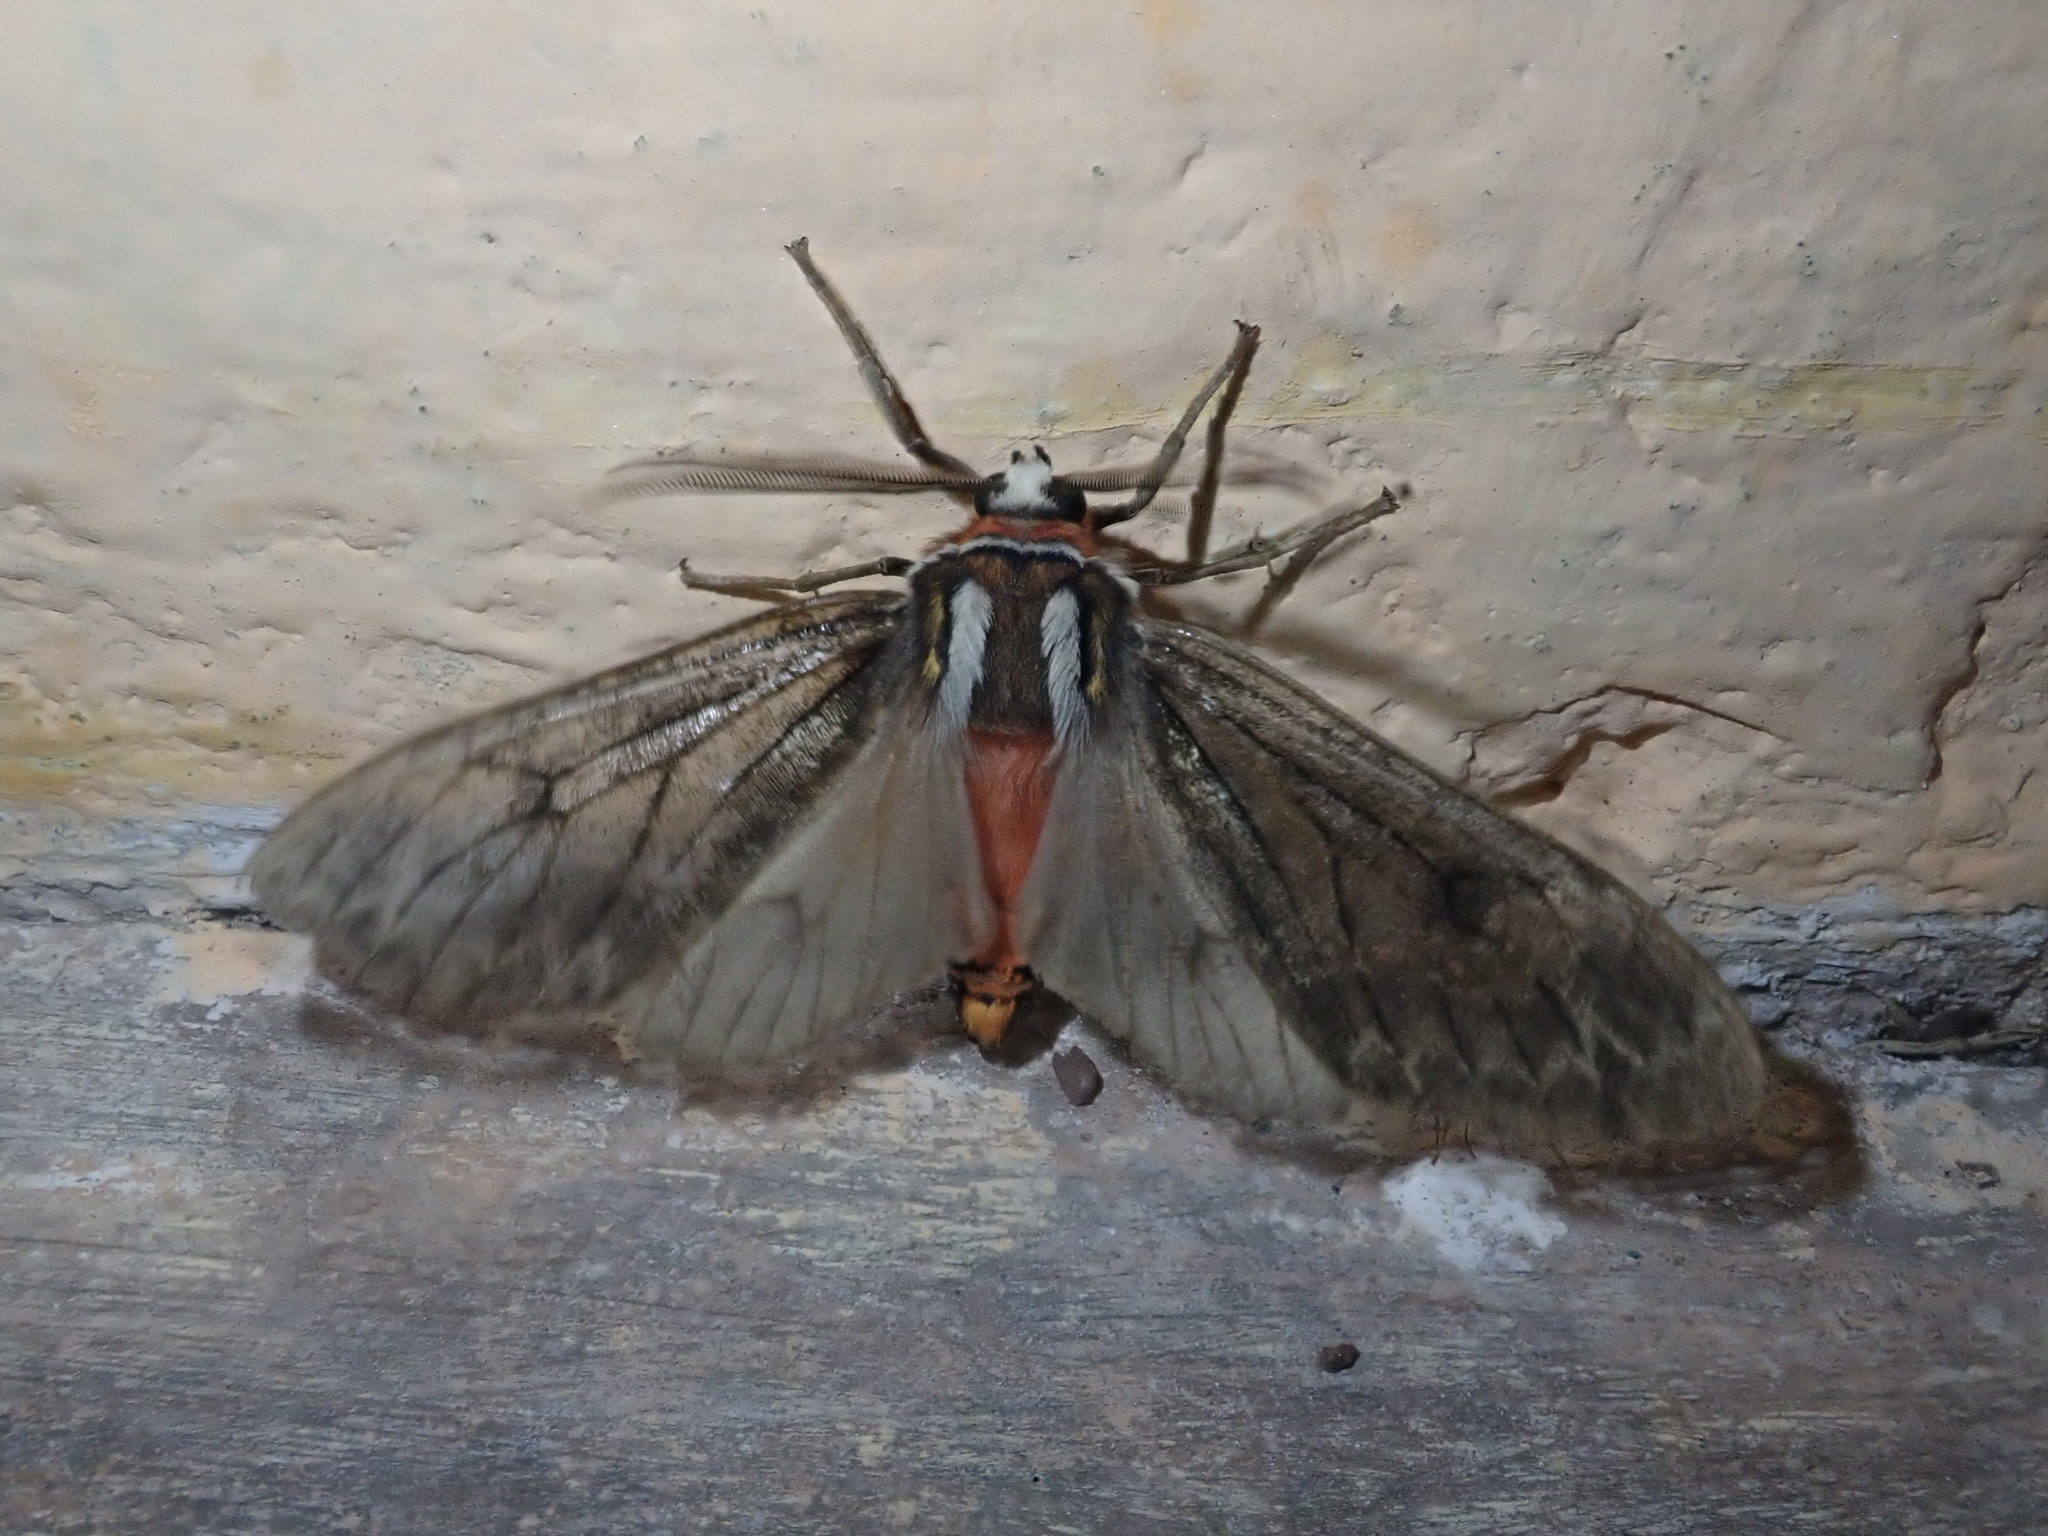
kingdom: Animalia
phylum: Arthropoda
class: Insecta
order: Lepidoptera
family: Erebidae
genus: Amastus
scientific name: Amastus antonio
